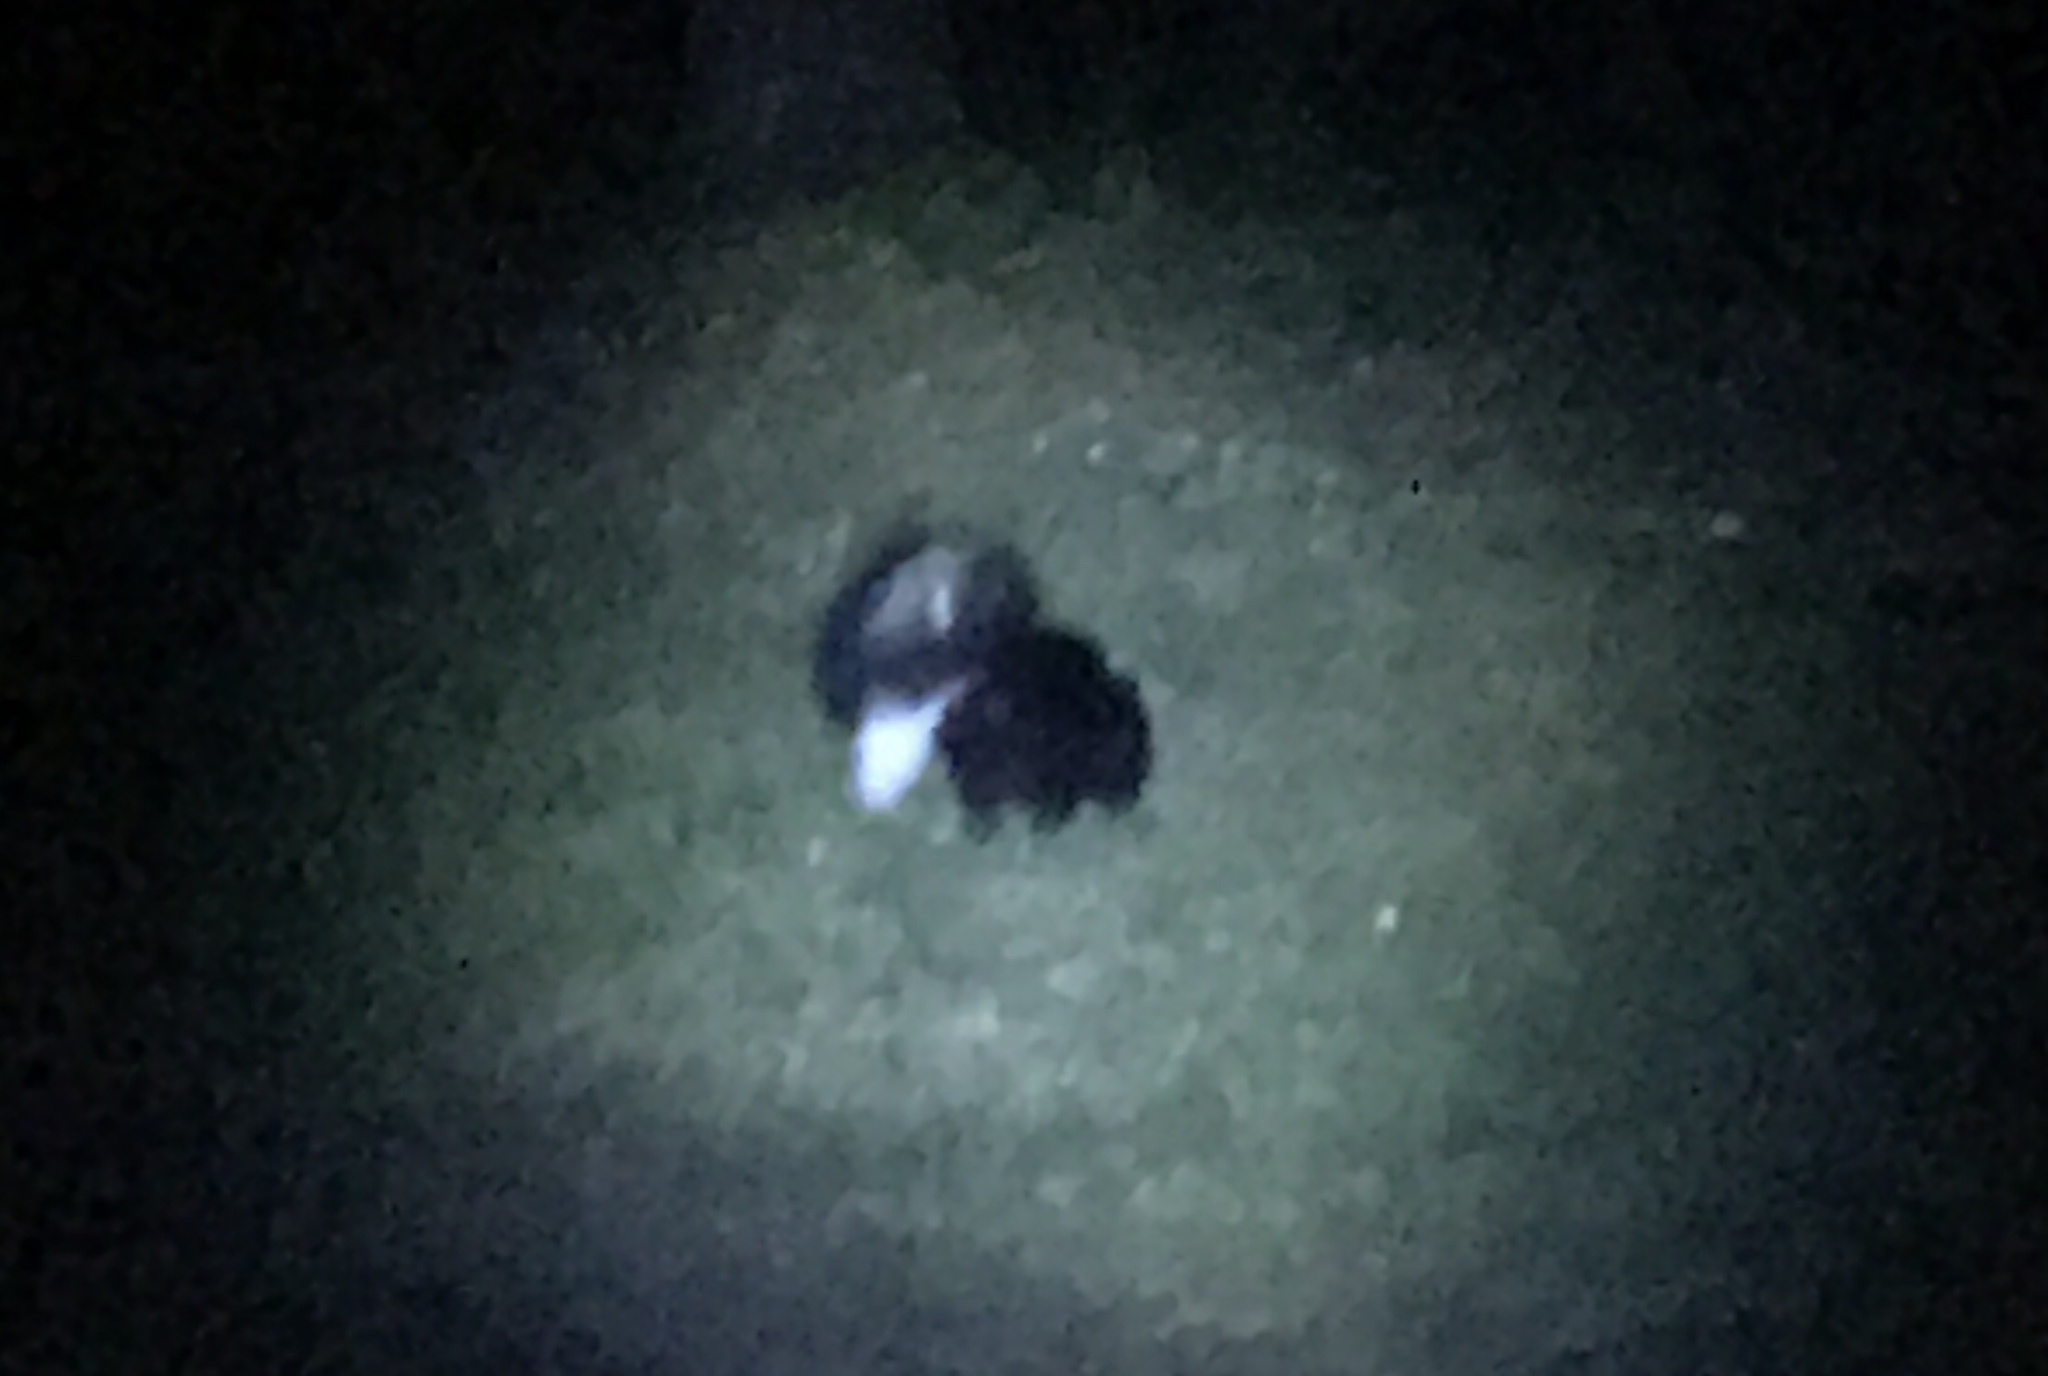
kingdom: Animalia
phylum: Chordata
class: Mammalia
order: Carnivora
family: Mephitidae
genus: Mephitis
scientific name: Mephitis mephitis
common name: Striped skunk
